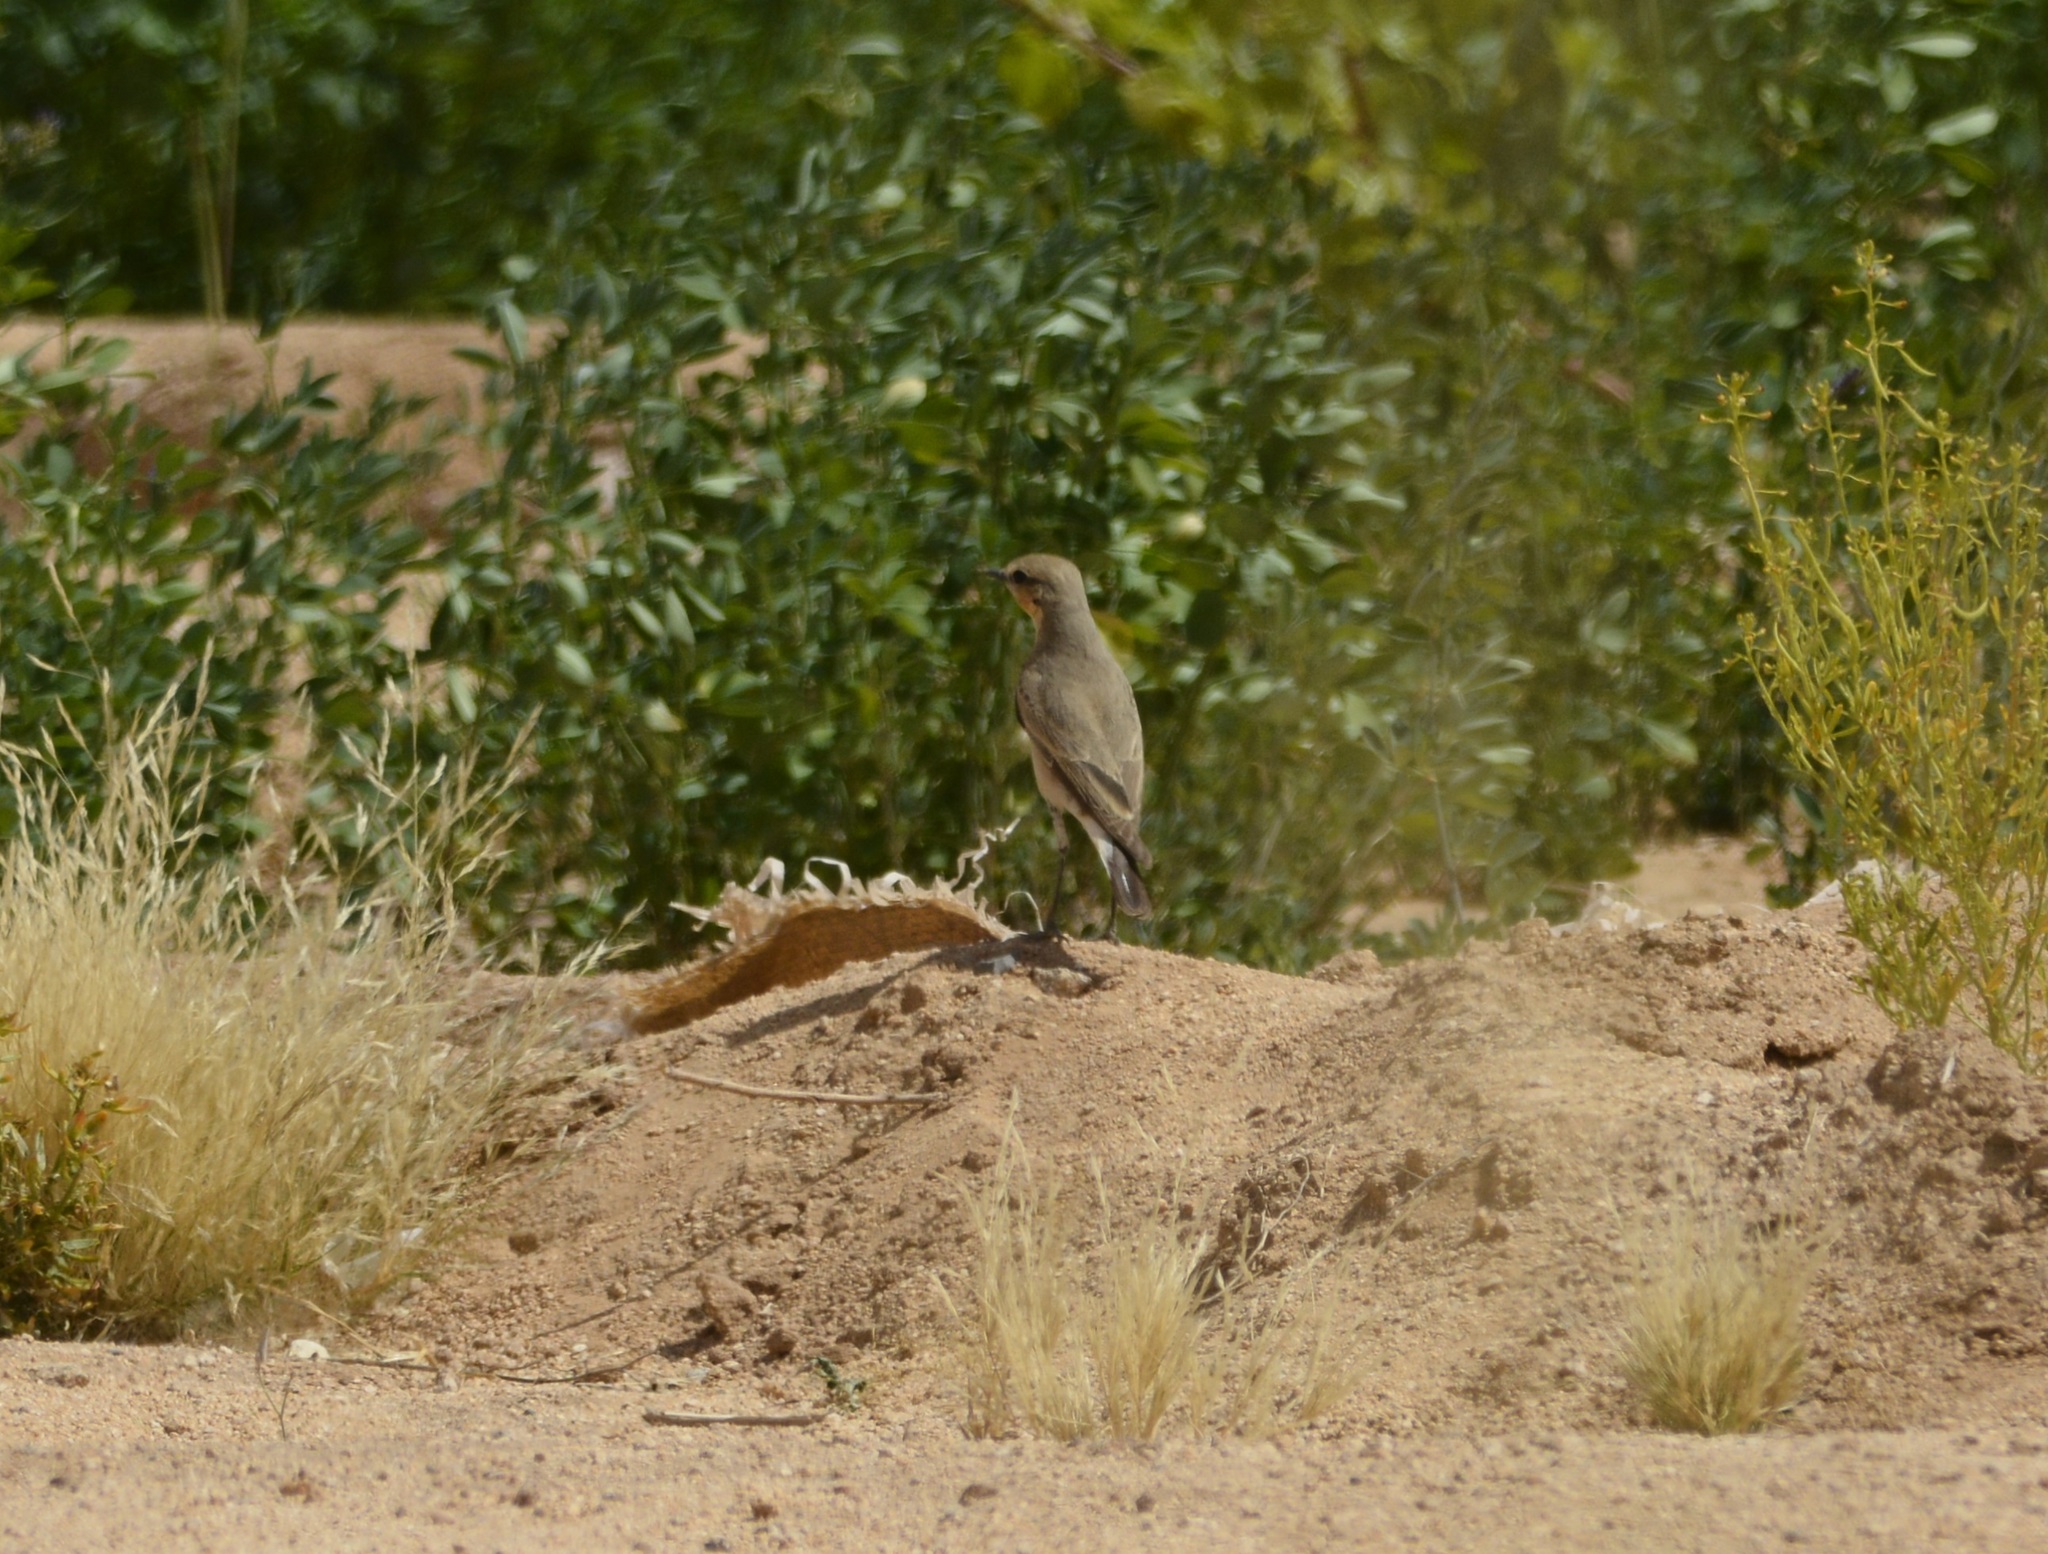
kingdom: Animalia
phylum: Chordata
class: Aves
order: Passeriformes
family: Muscicapidae
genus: Oenanthe
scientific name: Oenanthe isabellina
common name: Isabelline wheatear
